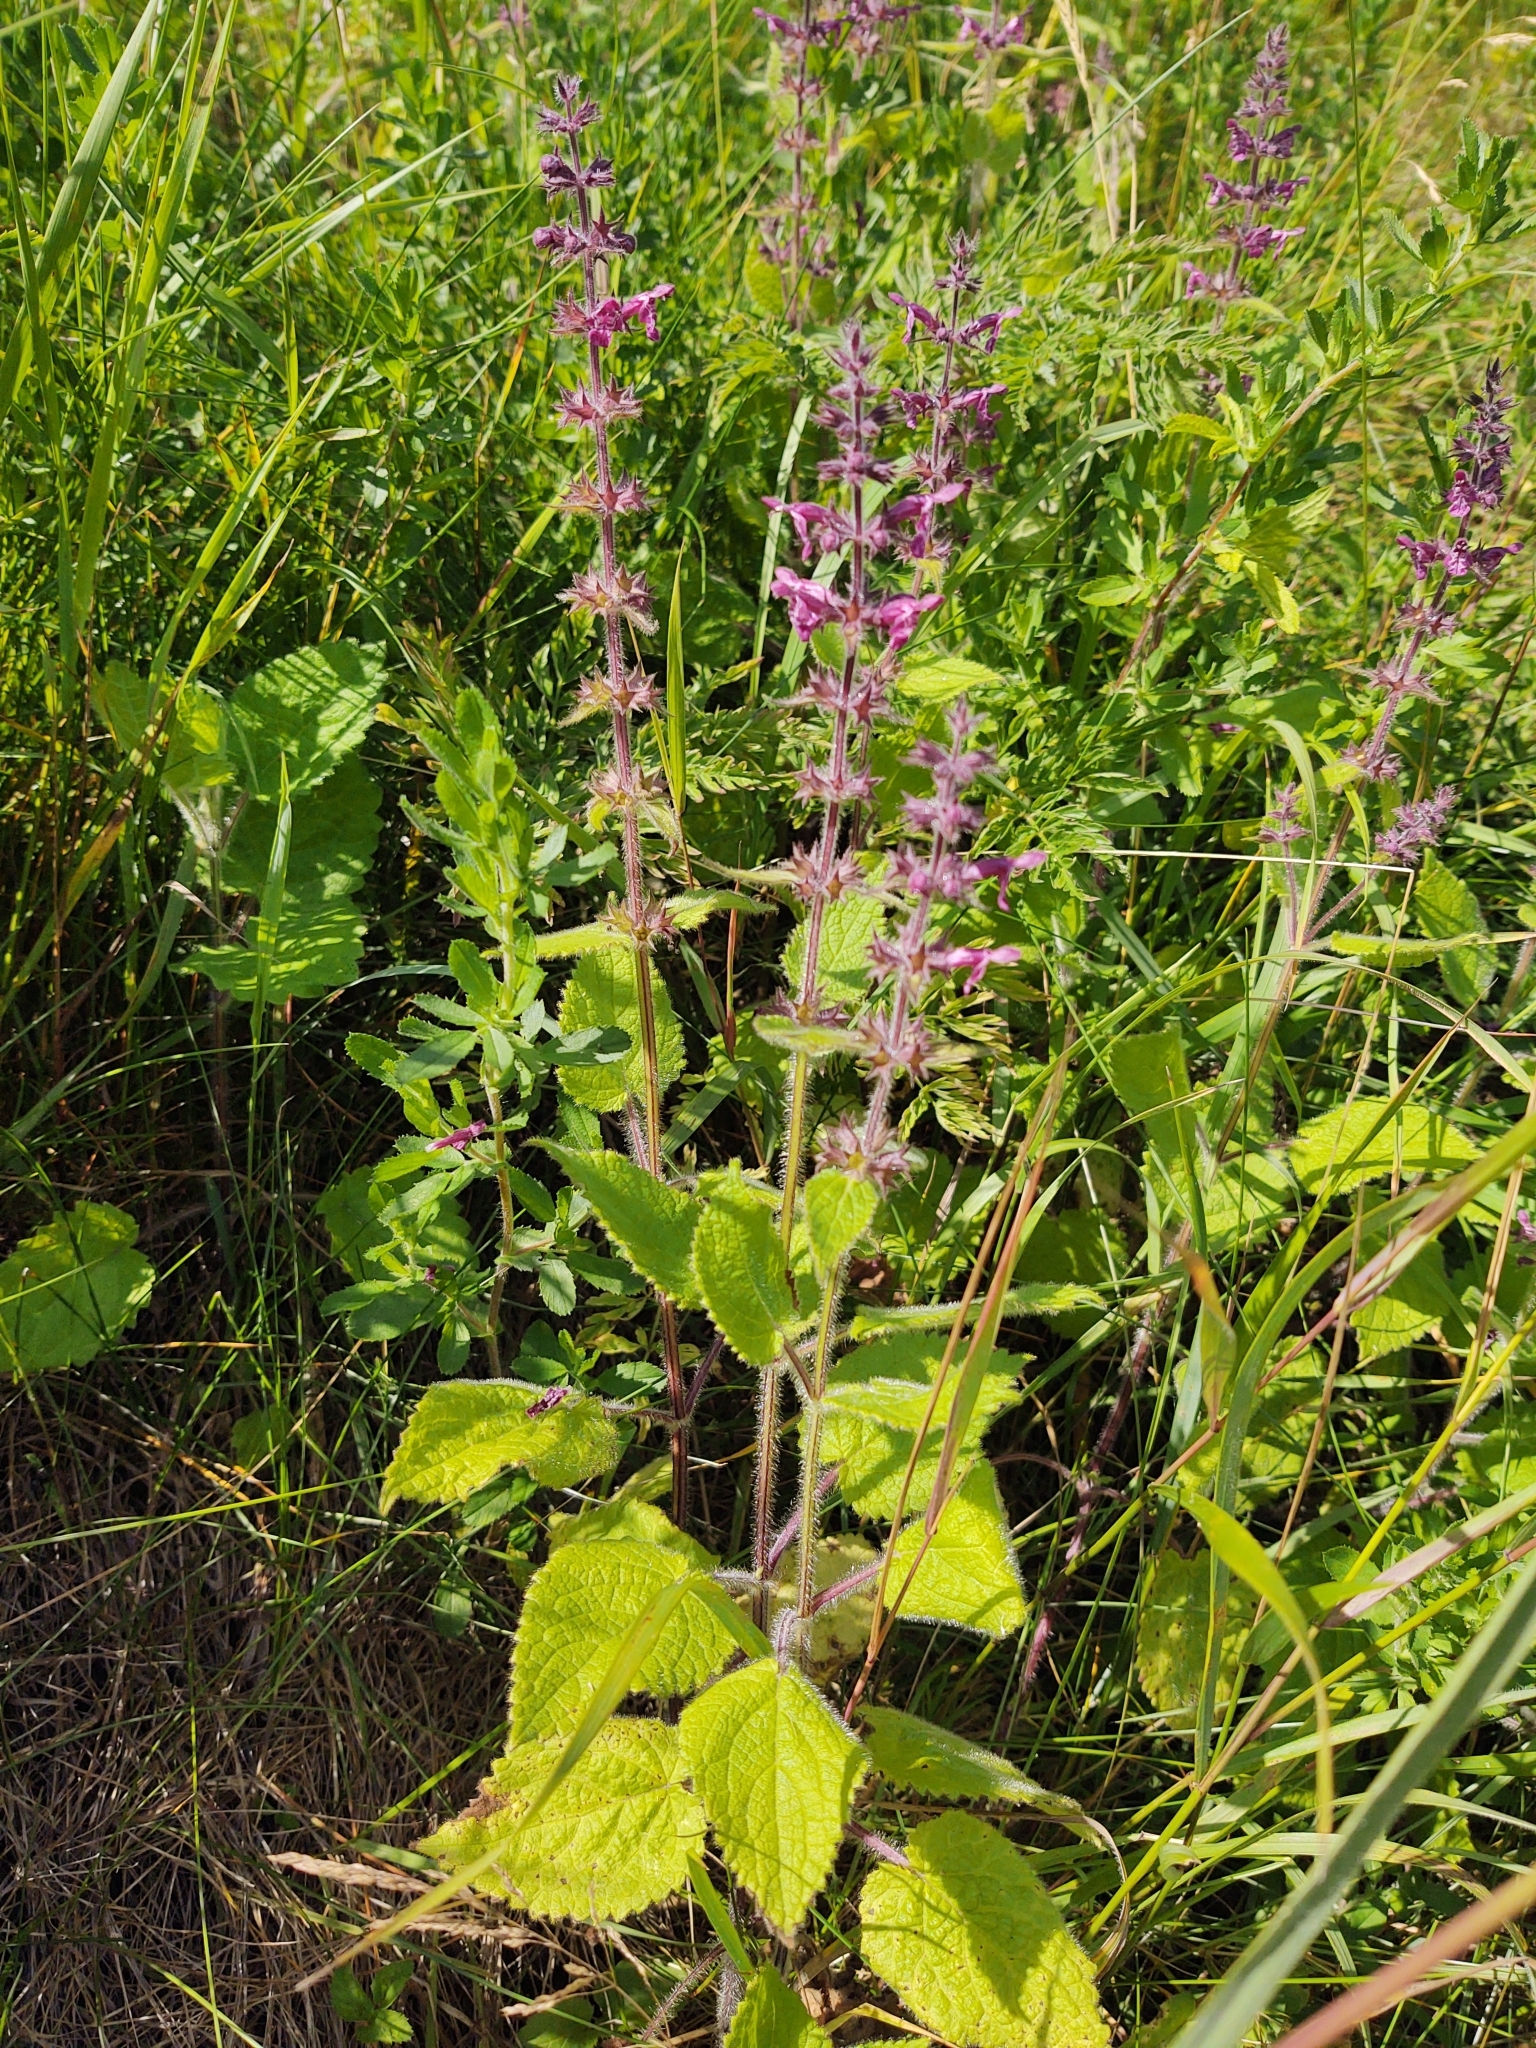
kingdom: Plantae
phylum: Tracheophyta
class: Magnoliopsida
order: Lamiales
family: Lamiaceae
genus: Stachys
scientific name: Stachys sylvatica
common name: Hedge woundwort
